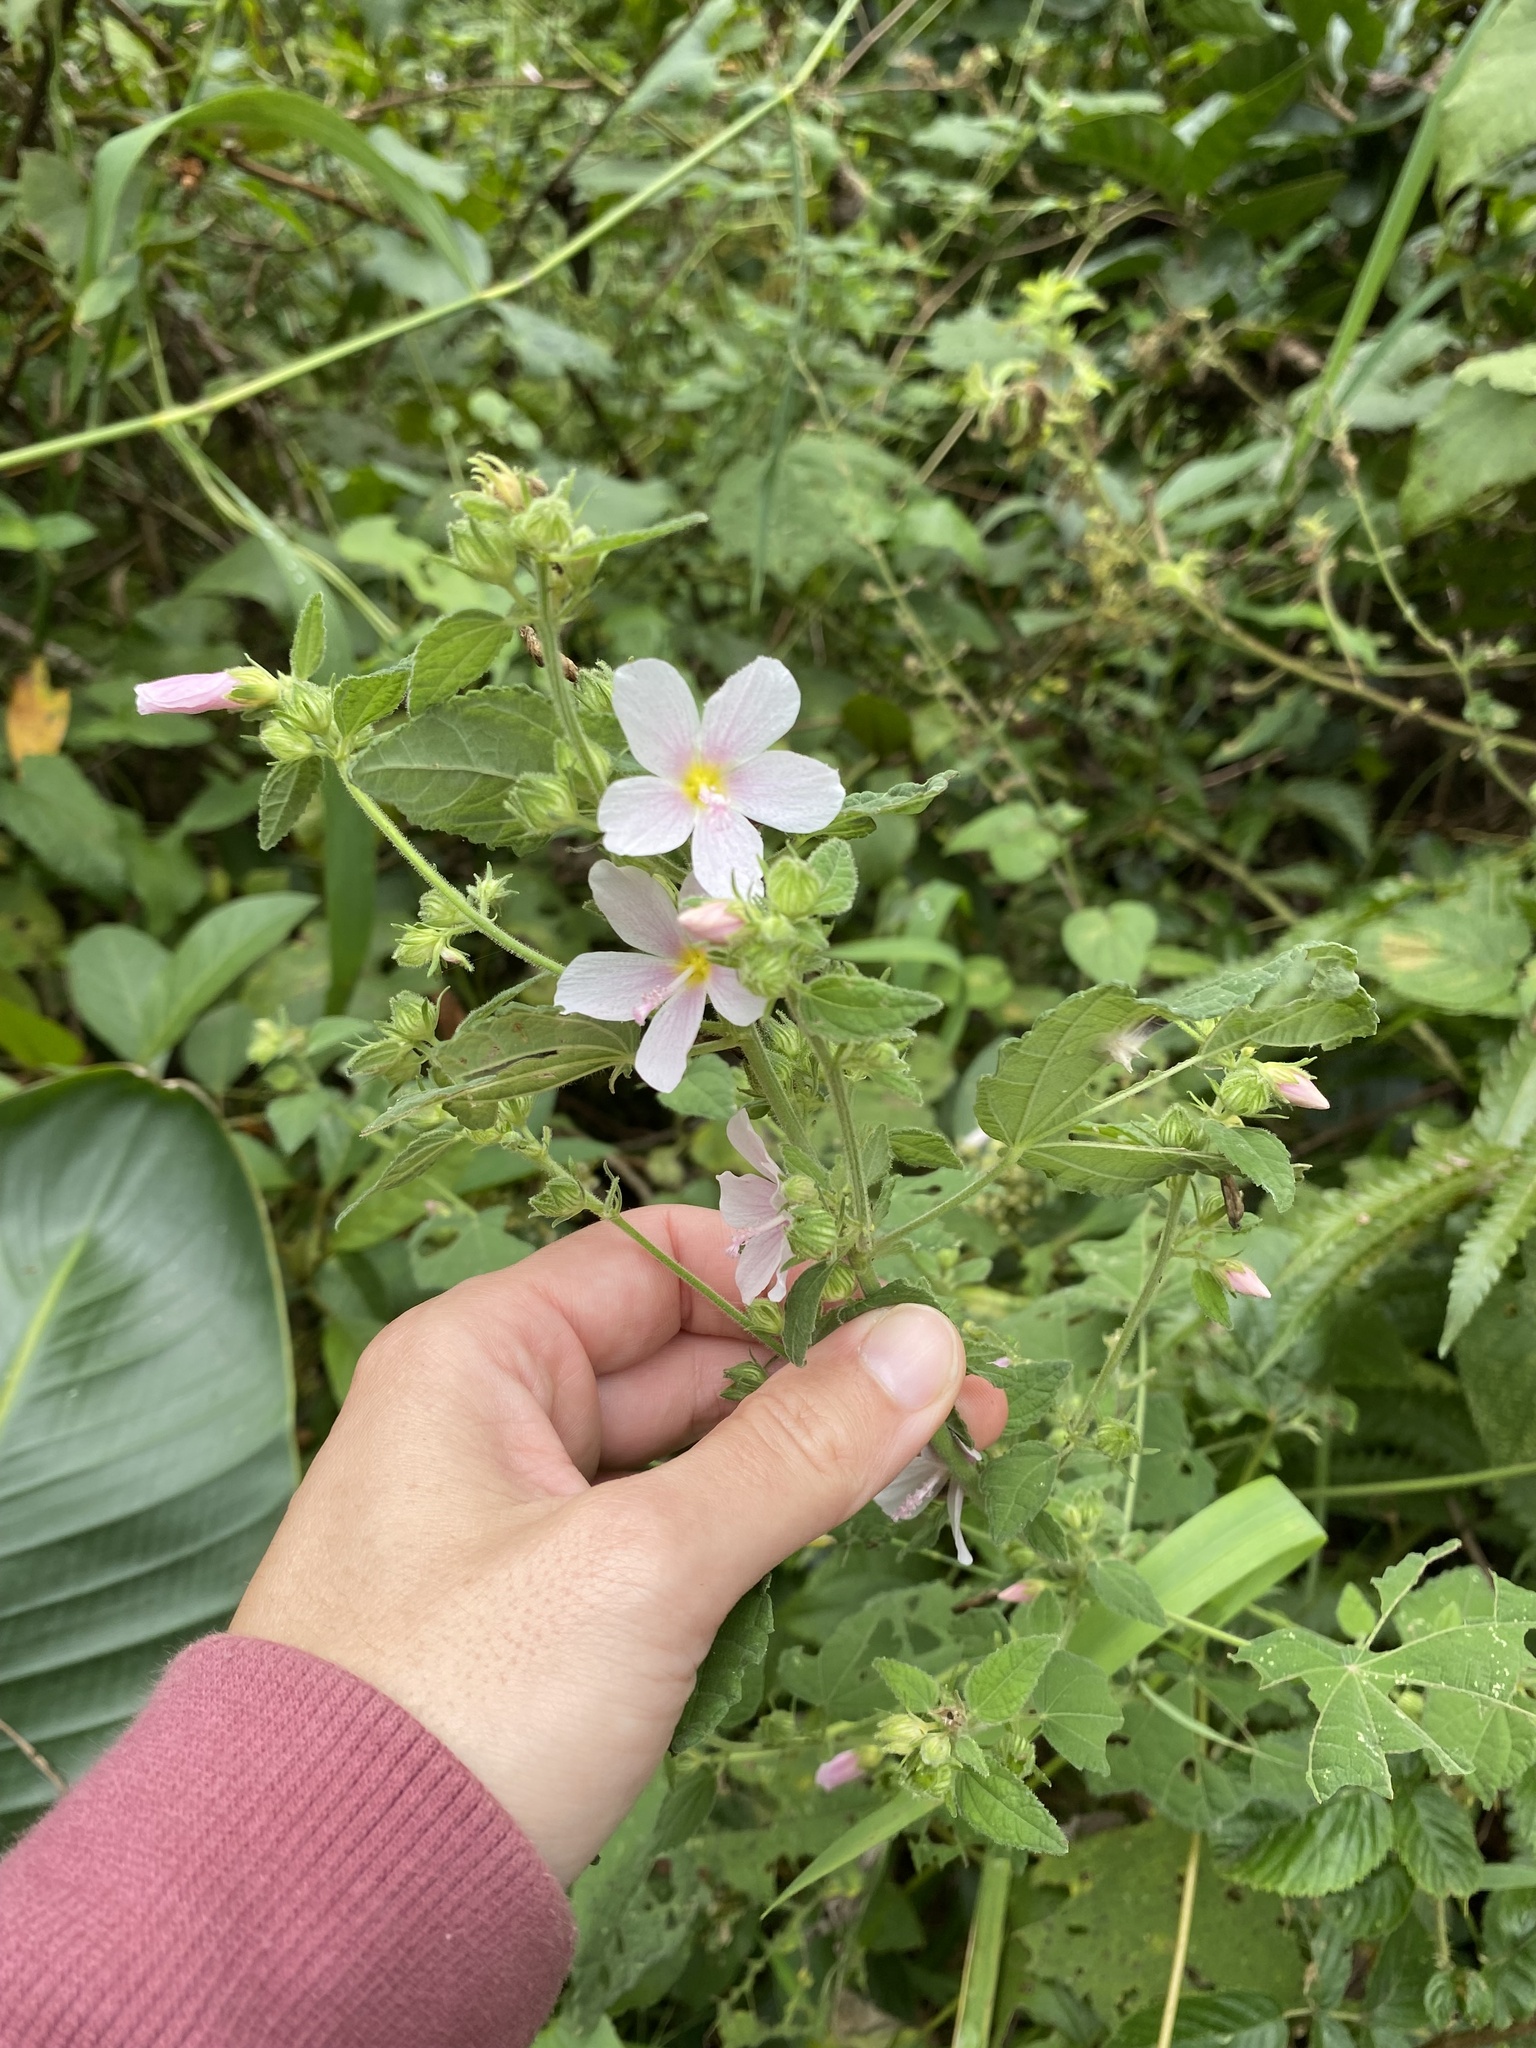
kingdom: Plantae
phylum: Tracheophyta
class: Magnoliopsida
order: Malvales
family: Malvaceae
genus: Pavonia
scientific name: Pavonia columella
